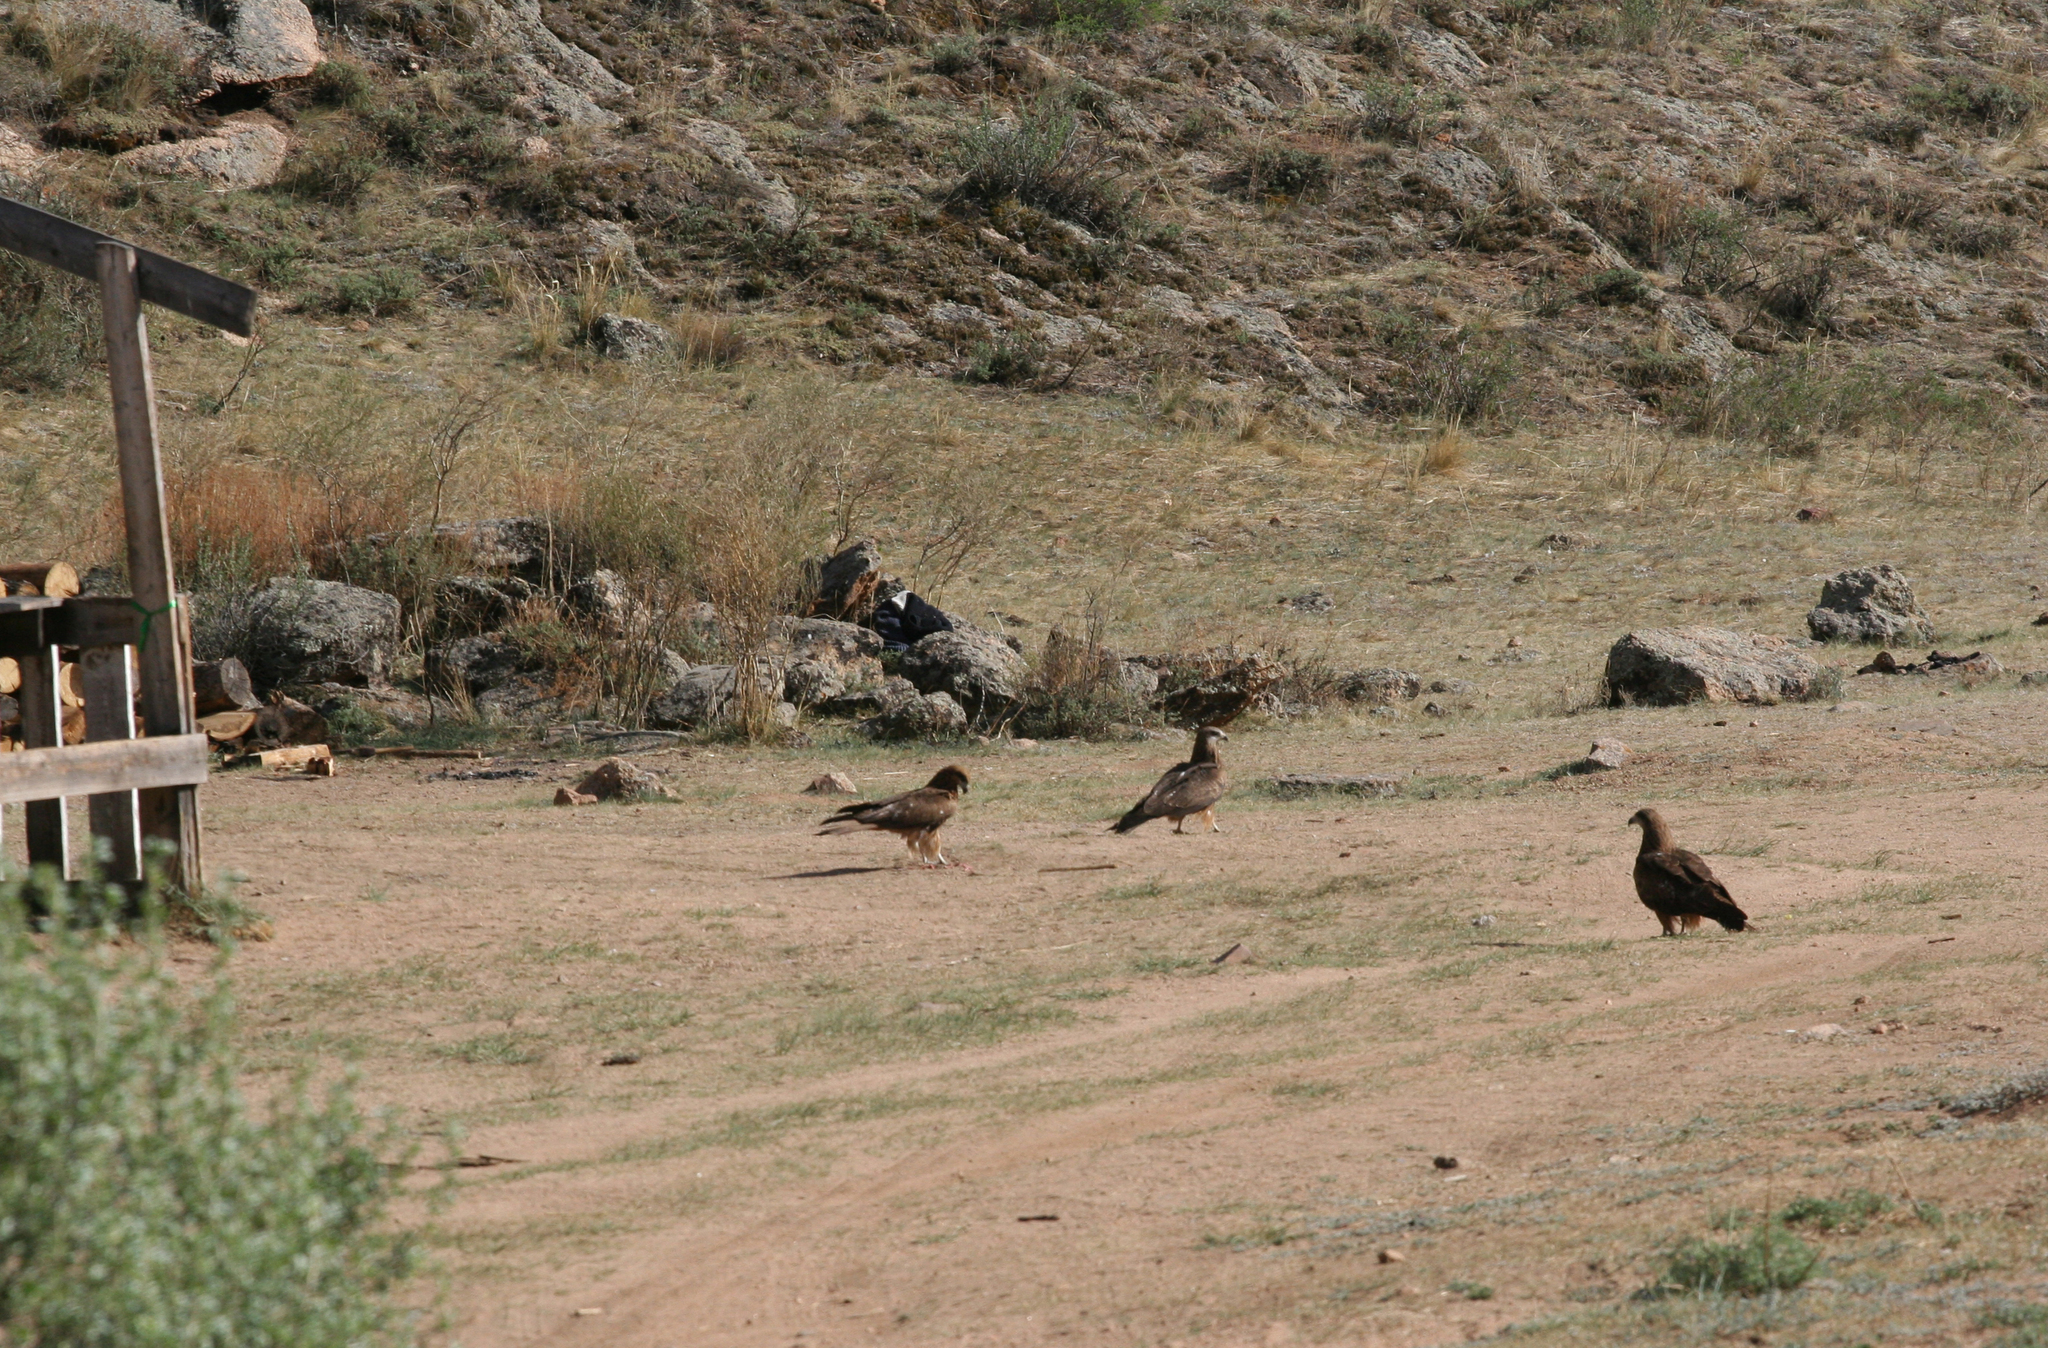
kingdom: Animalia
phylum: Chordata
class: Aves
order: Accipitriformes
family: Accipitridae
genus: Milvus
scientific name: Milvus migrans
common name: Black kite
